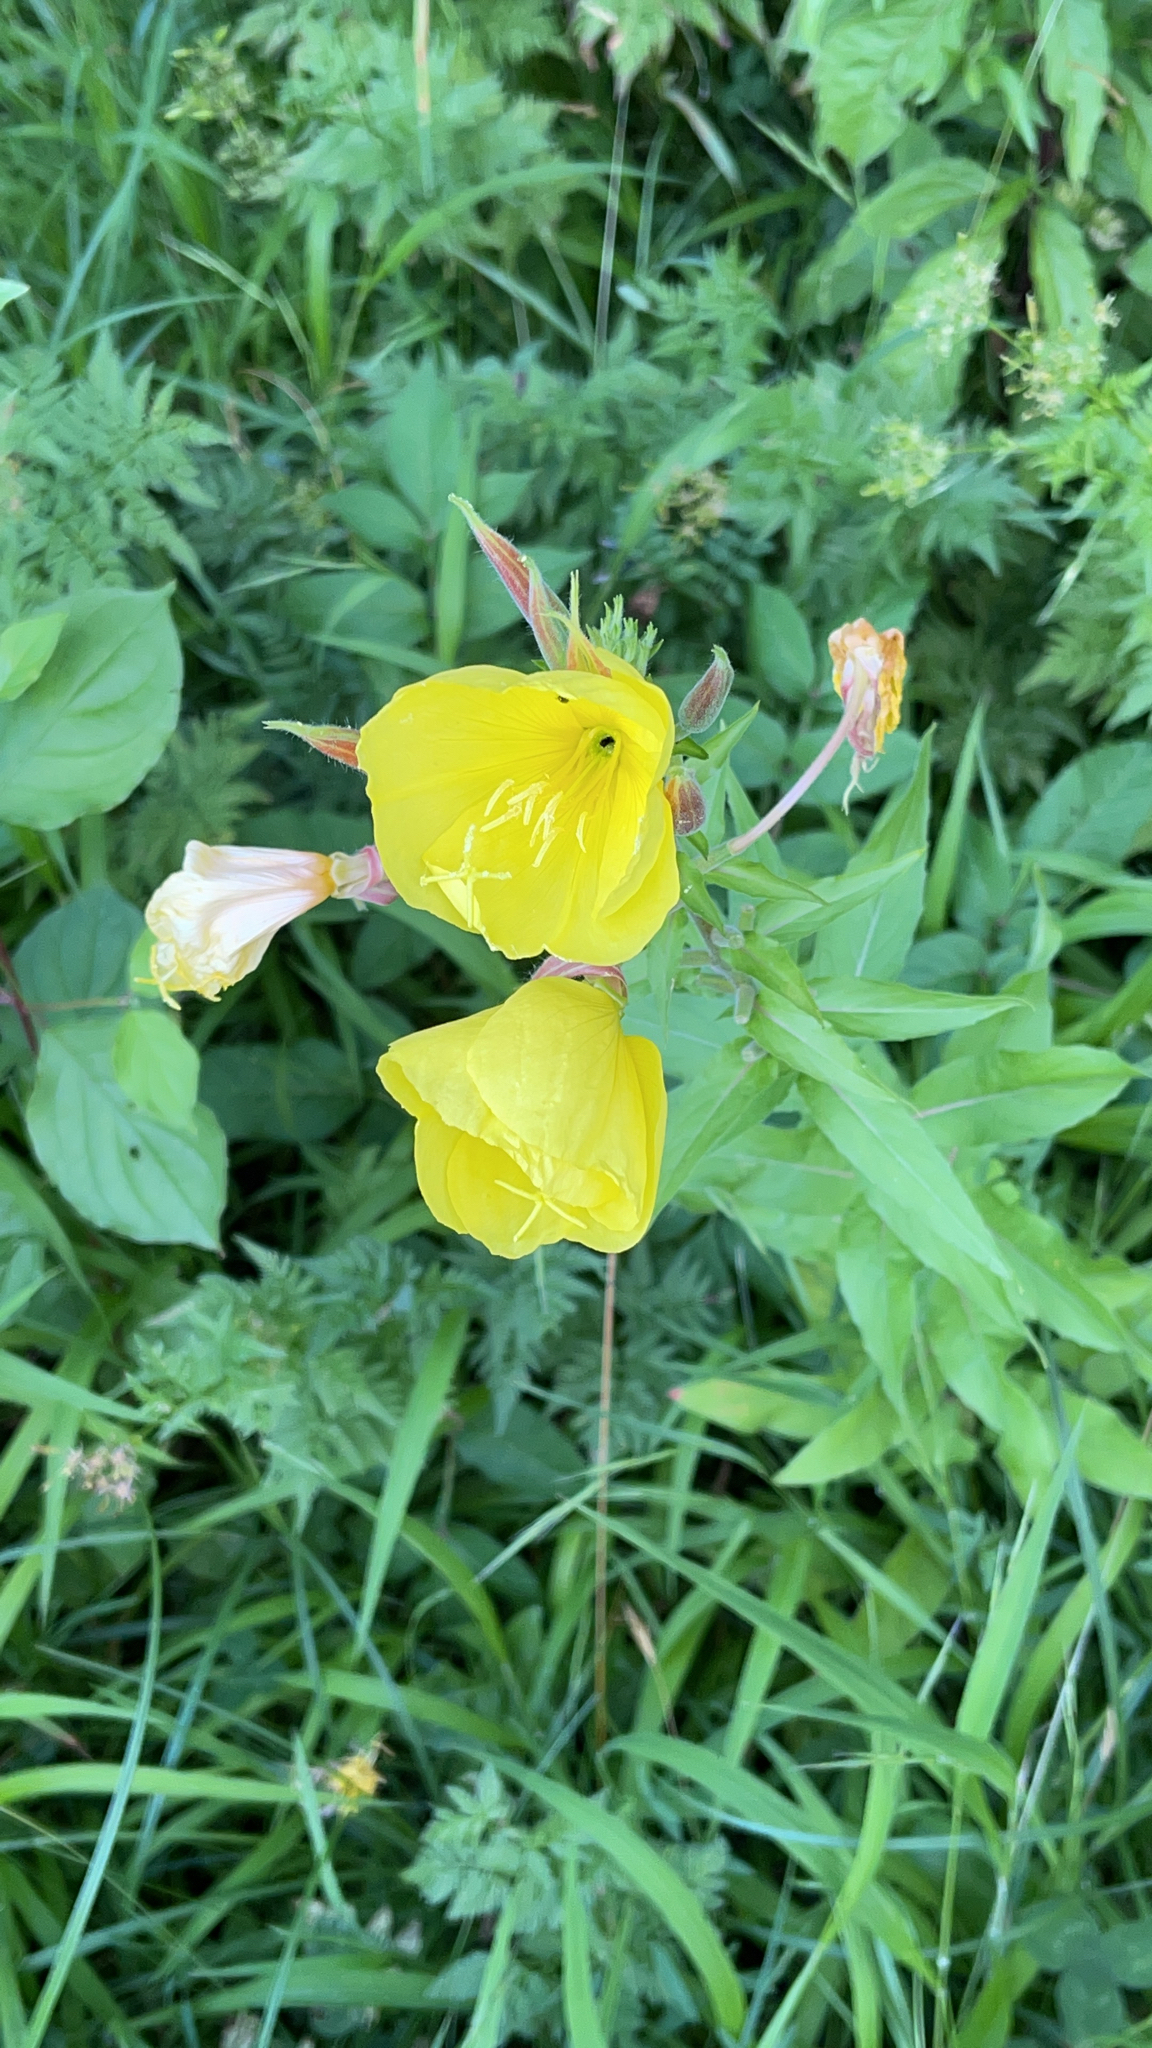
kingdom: Plantae
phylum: Tracheophyta
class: Magnoliopsida
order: Myrtales
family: Onagraceae
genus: Oenothera
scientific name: Oenothera glazioviana
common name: Large-flowered evening-primrose
